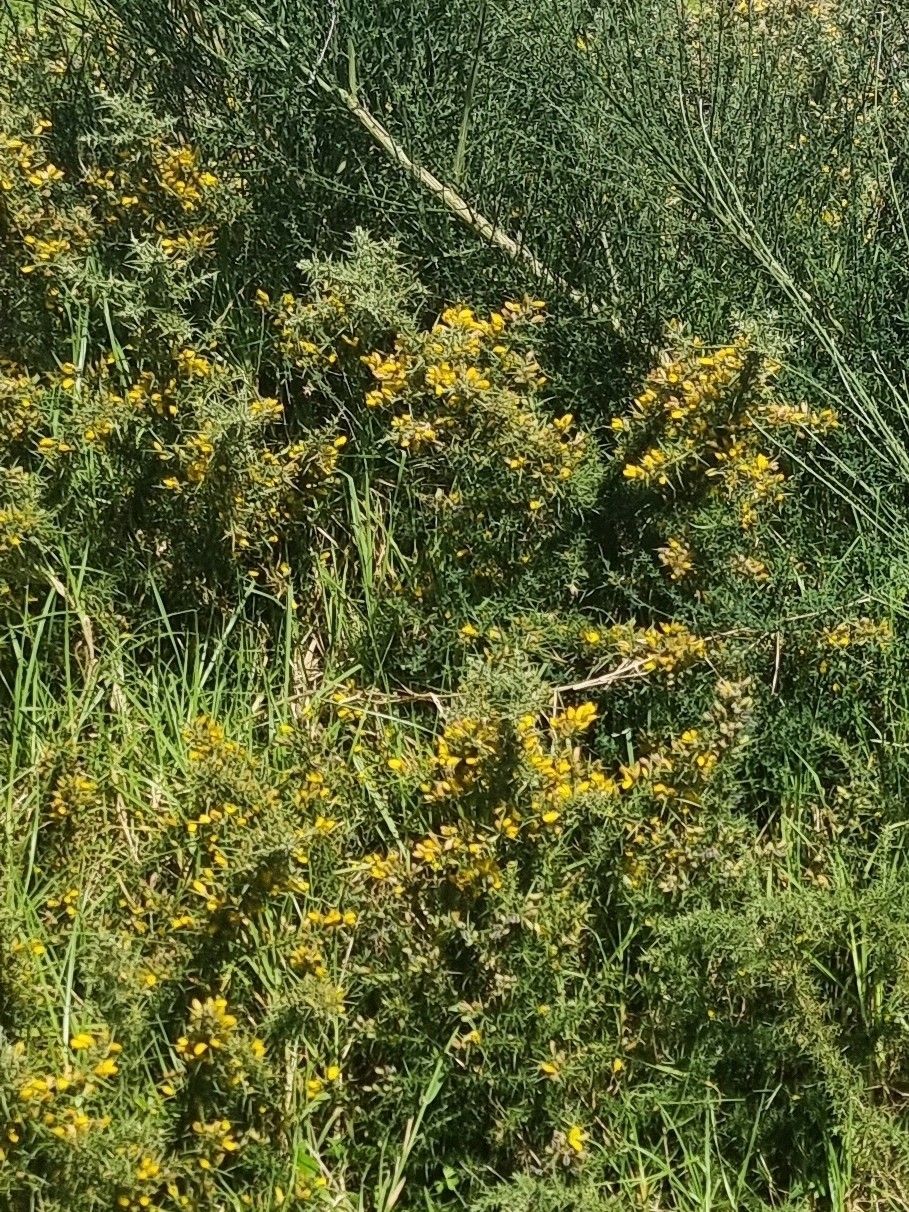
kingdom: Plantae
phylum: Tracheophyta
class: Magnoliopsida
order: Fabales
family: Fabaceae
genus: Ulex
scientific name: Ulex europaeus
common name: Common gorse
